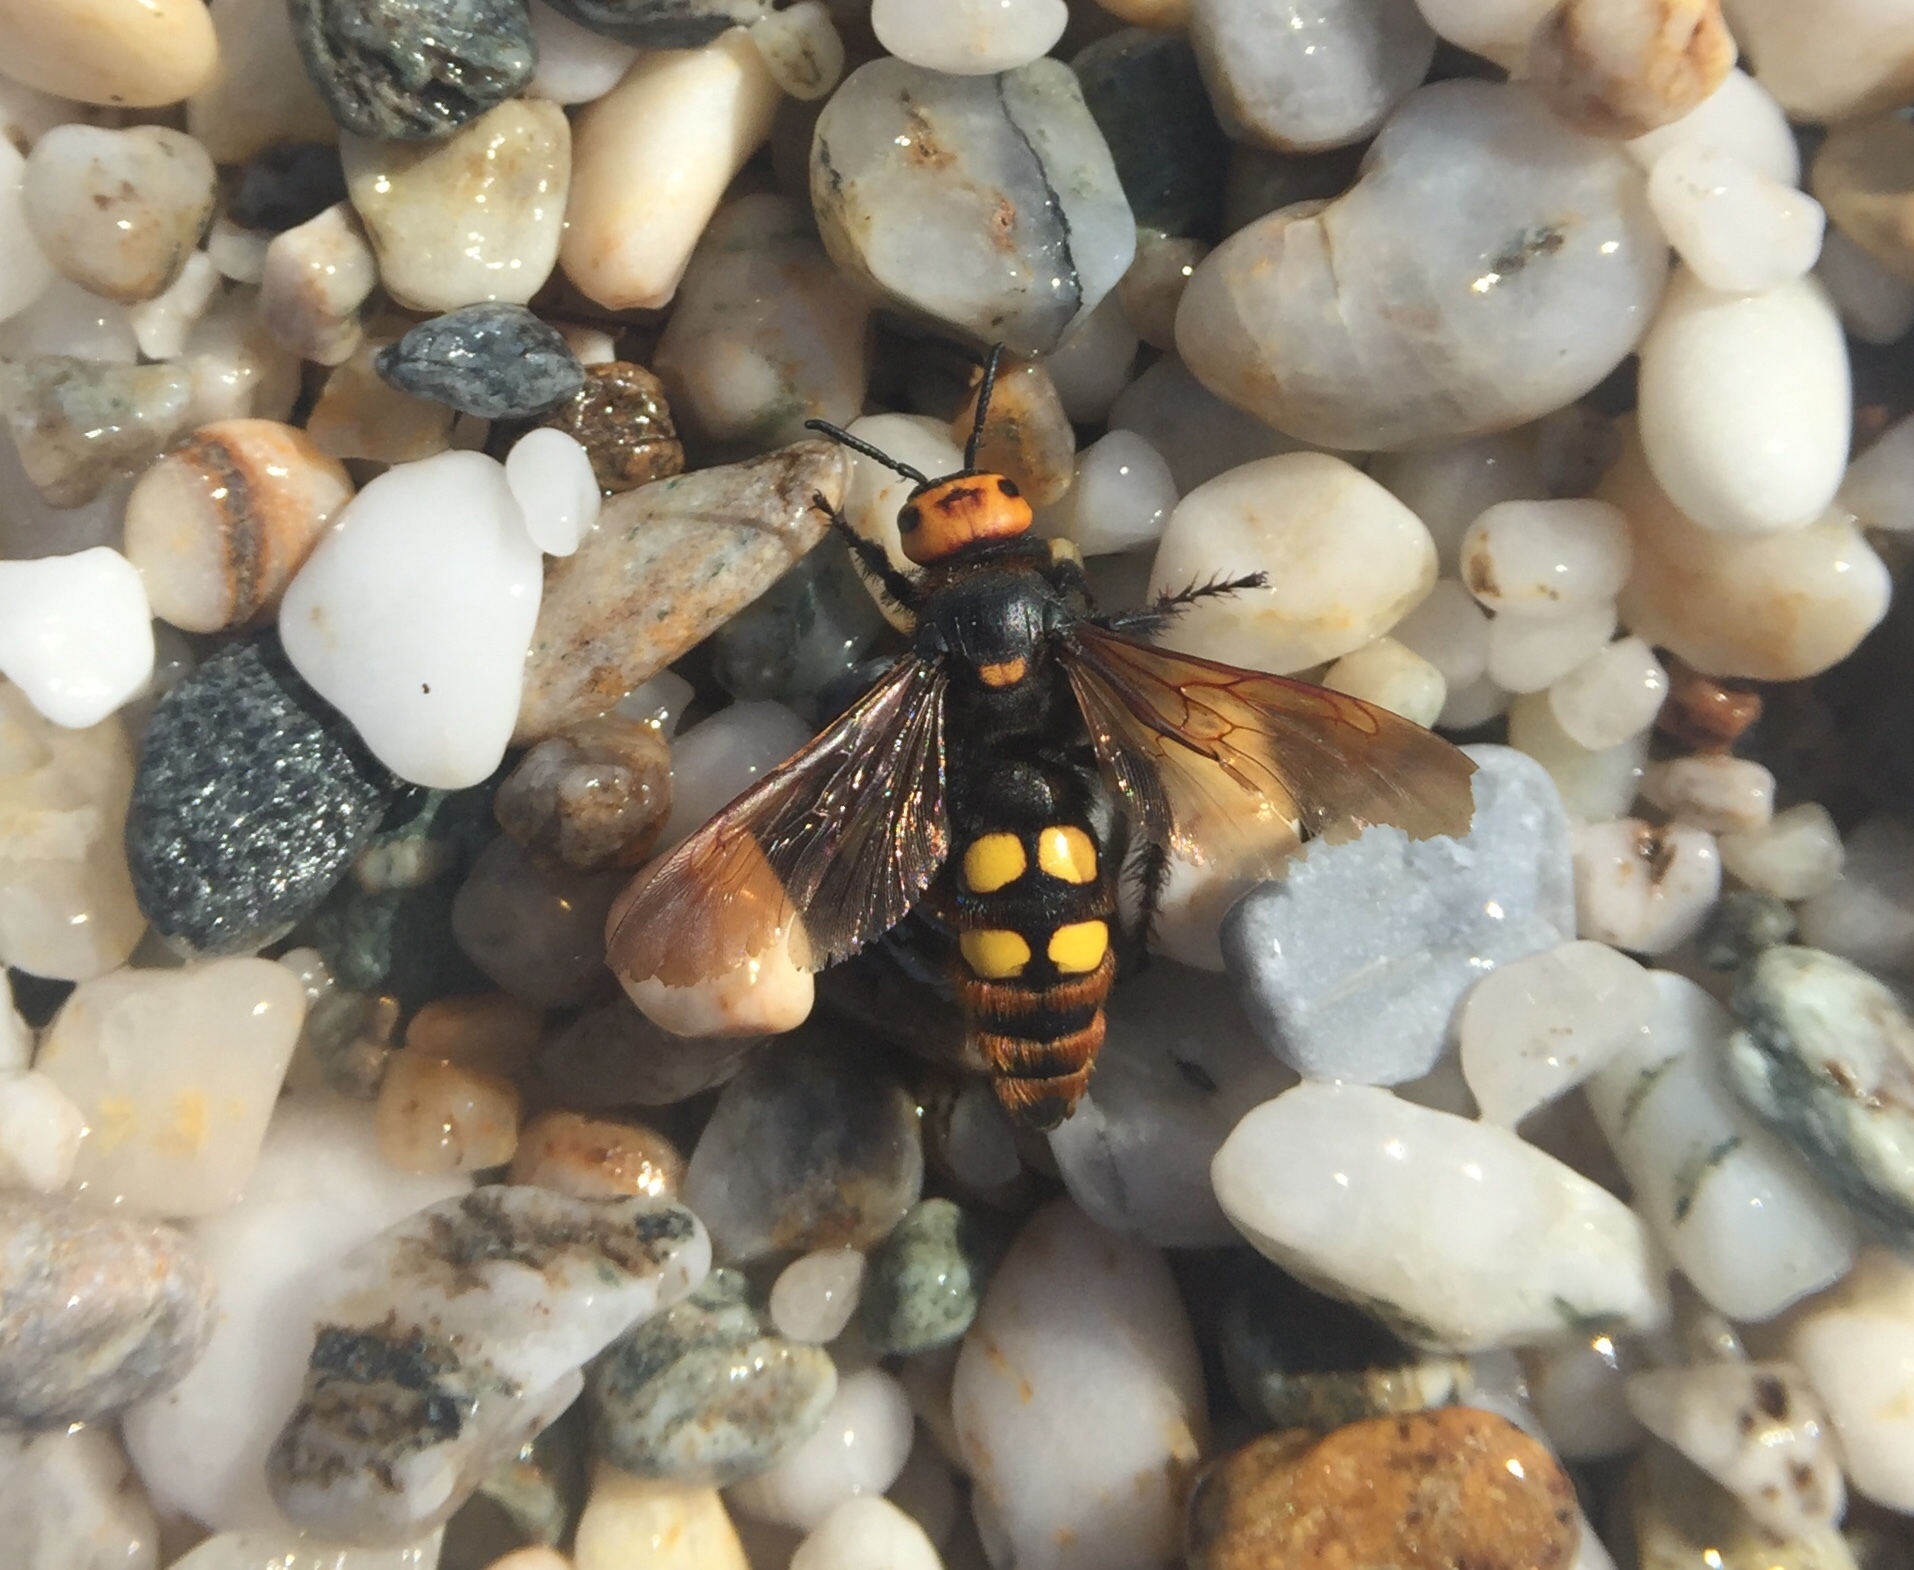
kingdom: Animalia
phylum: Arthropoda
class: Insecta
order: Hymenoptera
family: Scoliidae
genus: Megascolia
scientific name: Megascolia maculata
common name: Mammoth wasp
